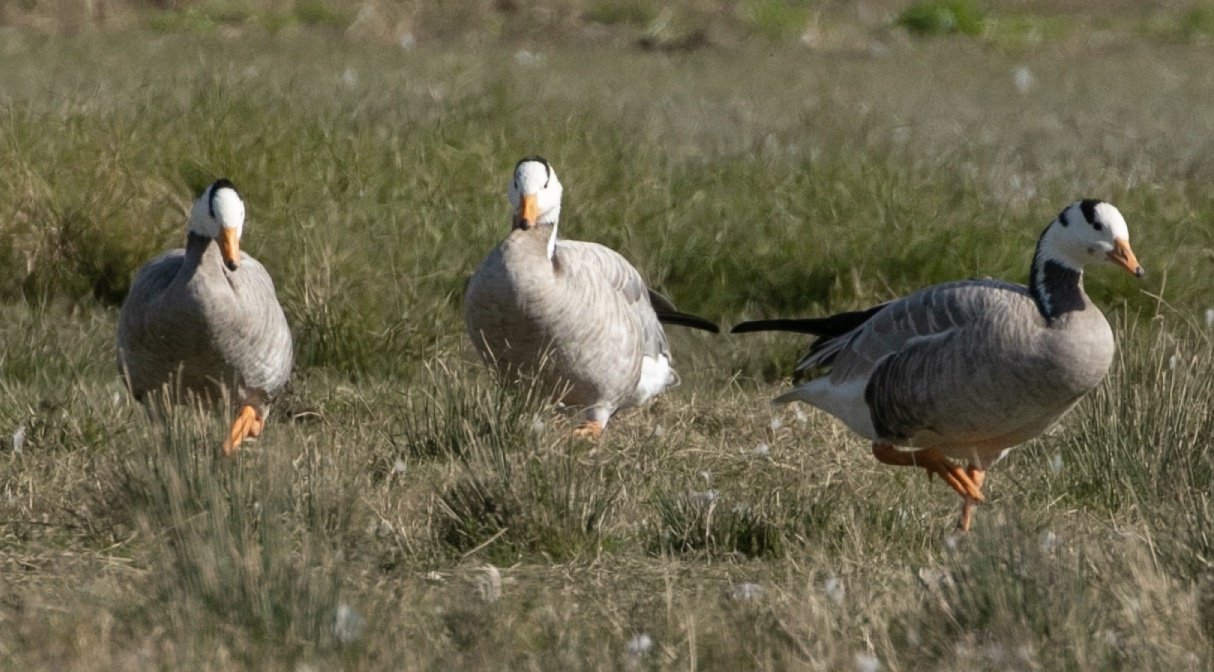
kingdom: Animalia
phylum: Chordata
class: Aves
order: Anseriformes
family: Anatidae
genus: Anser
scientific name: Anser indicus
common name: Bar-headed goose
